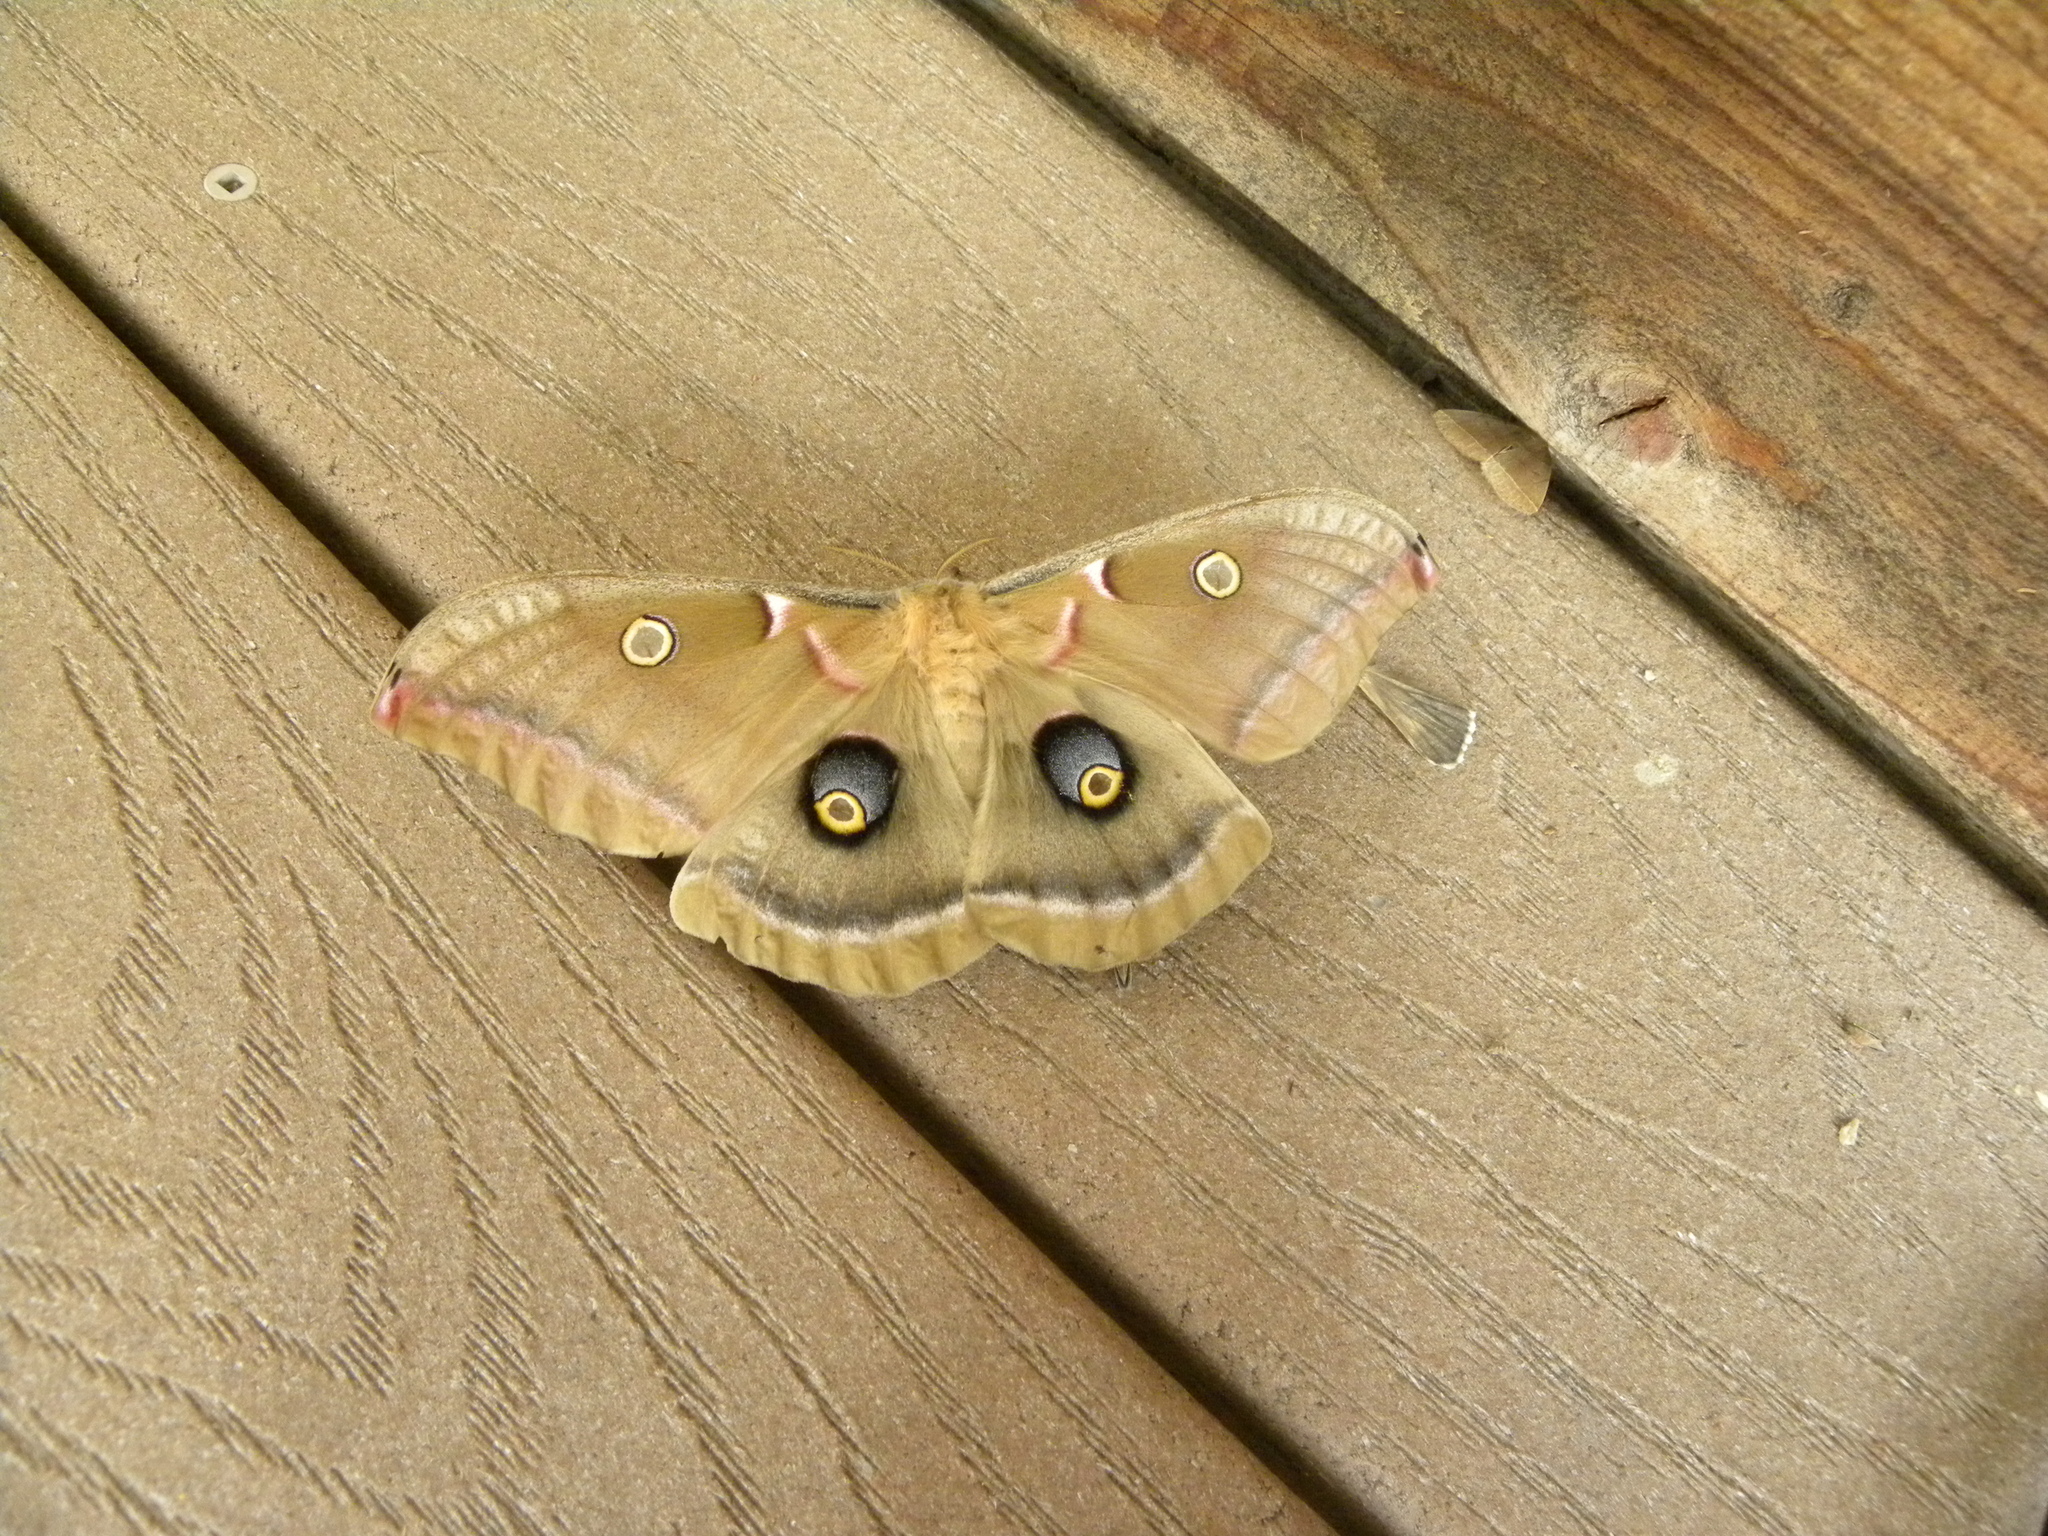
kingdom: Animalia
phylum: Arthropoda
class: Insecta
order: Lepidoptera
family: Saturniidae
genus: Antheraea
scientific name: Antheraea polyphemus
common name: Polyphemus moth
